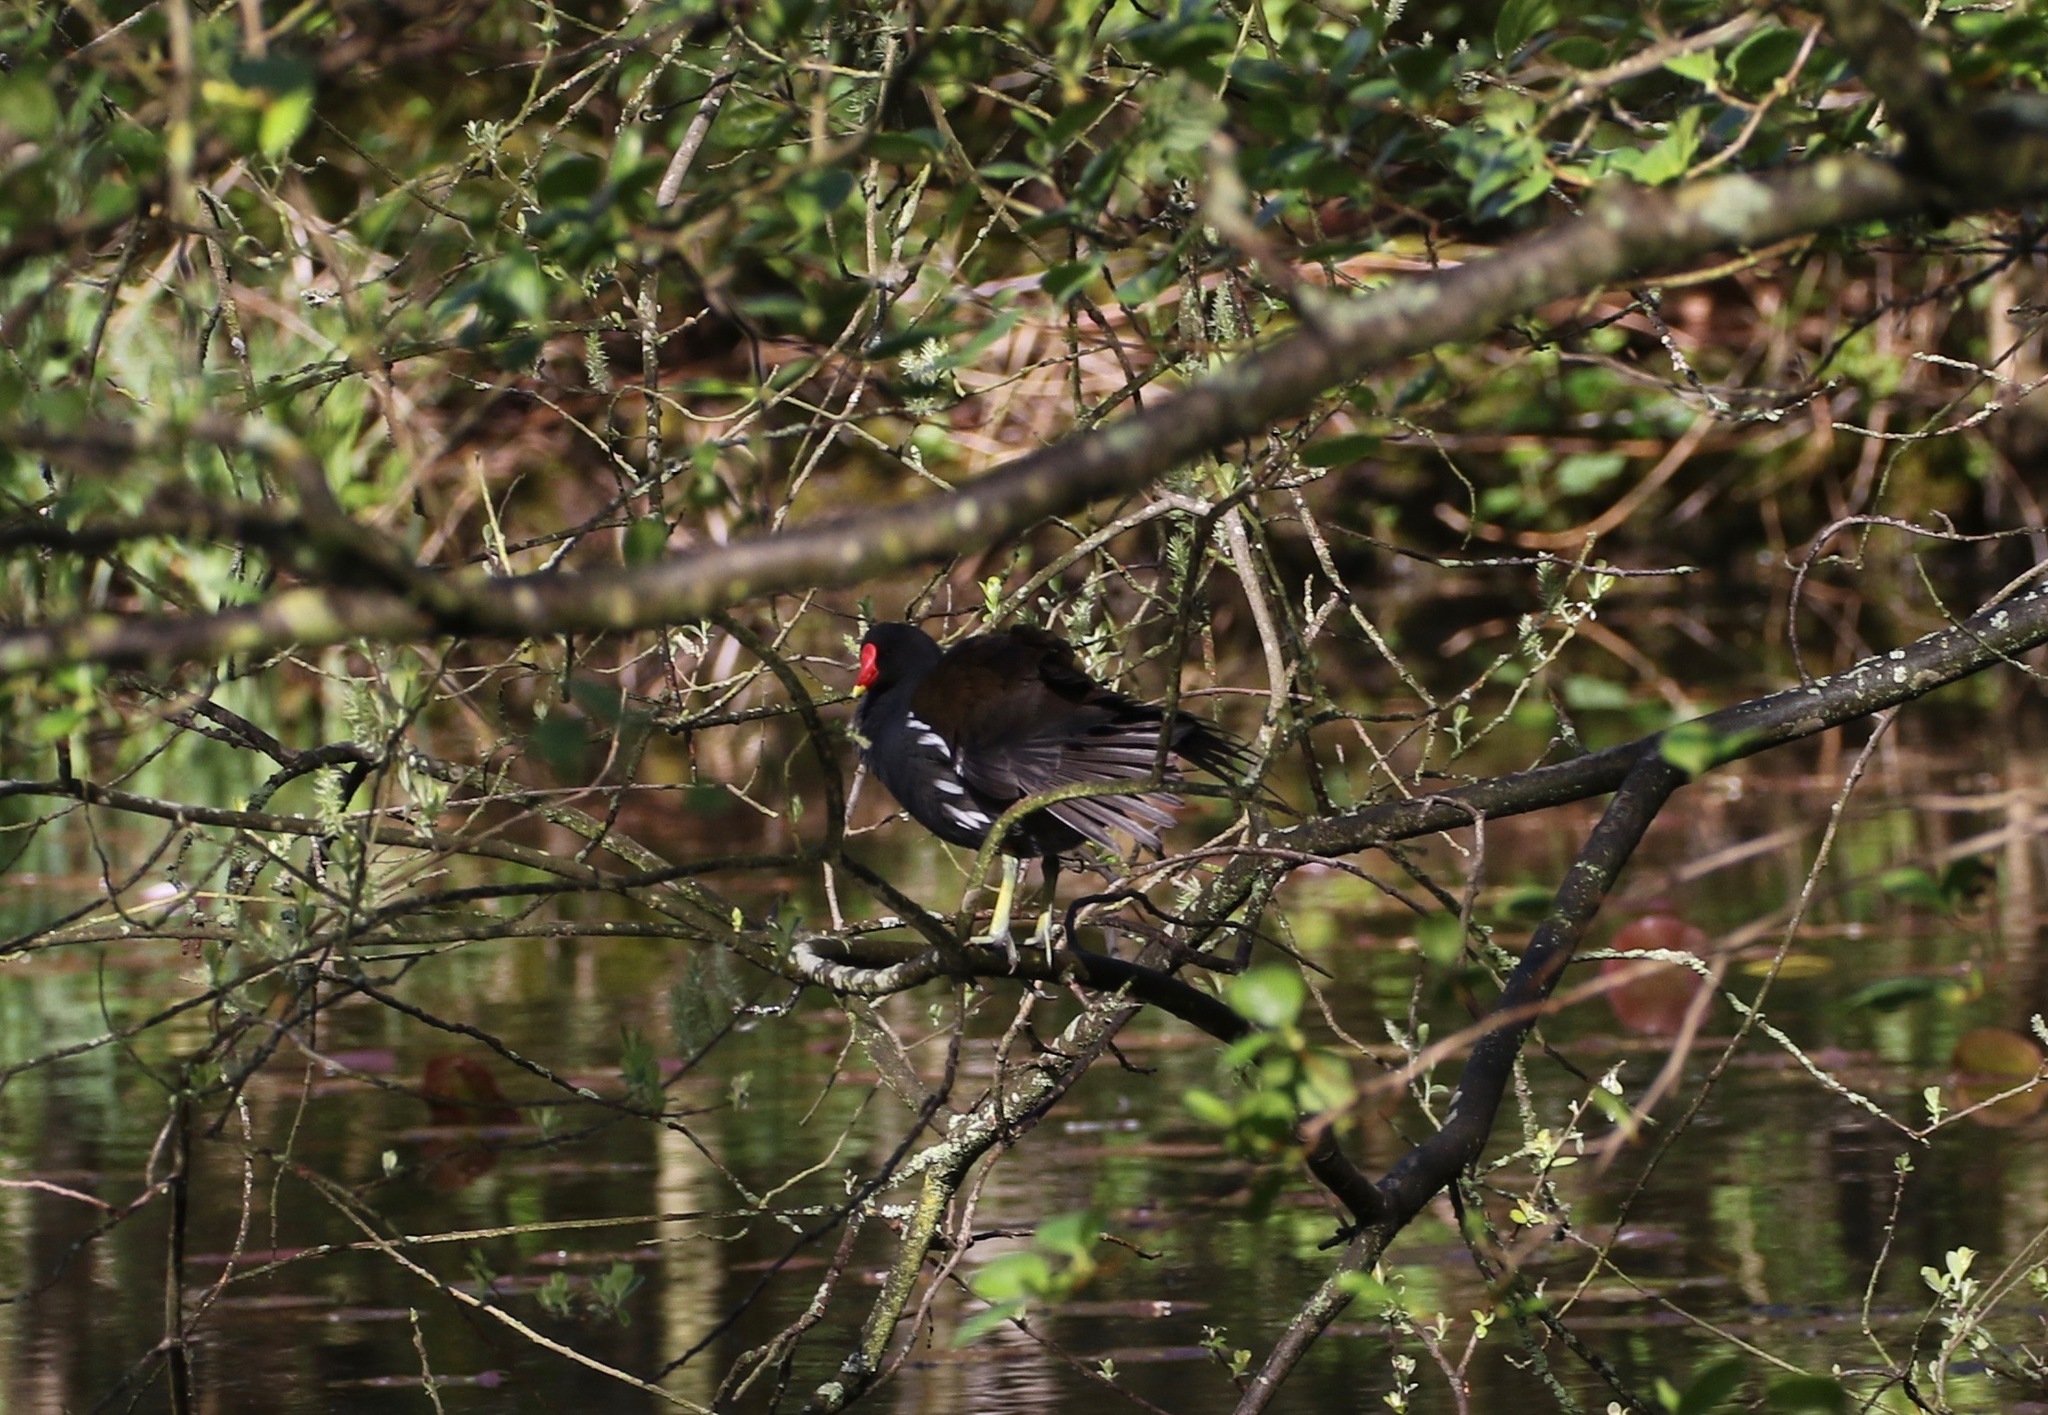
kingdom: Animalia
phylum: Chordata
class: Aves
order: Gruiformes
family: Rallidae
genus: Gallinula
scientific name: Gallinula chloropus
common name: Common moorhen
